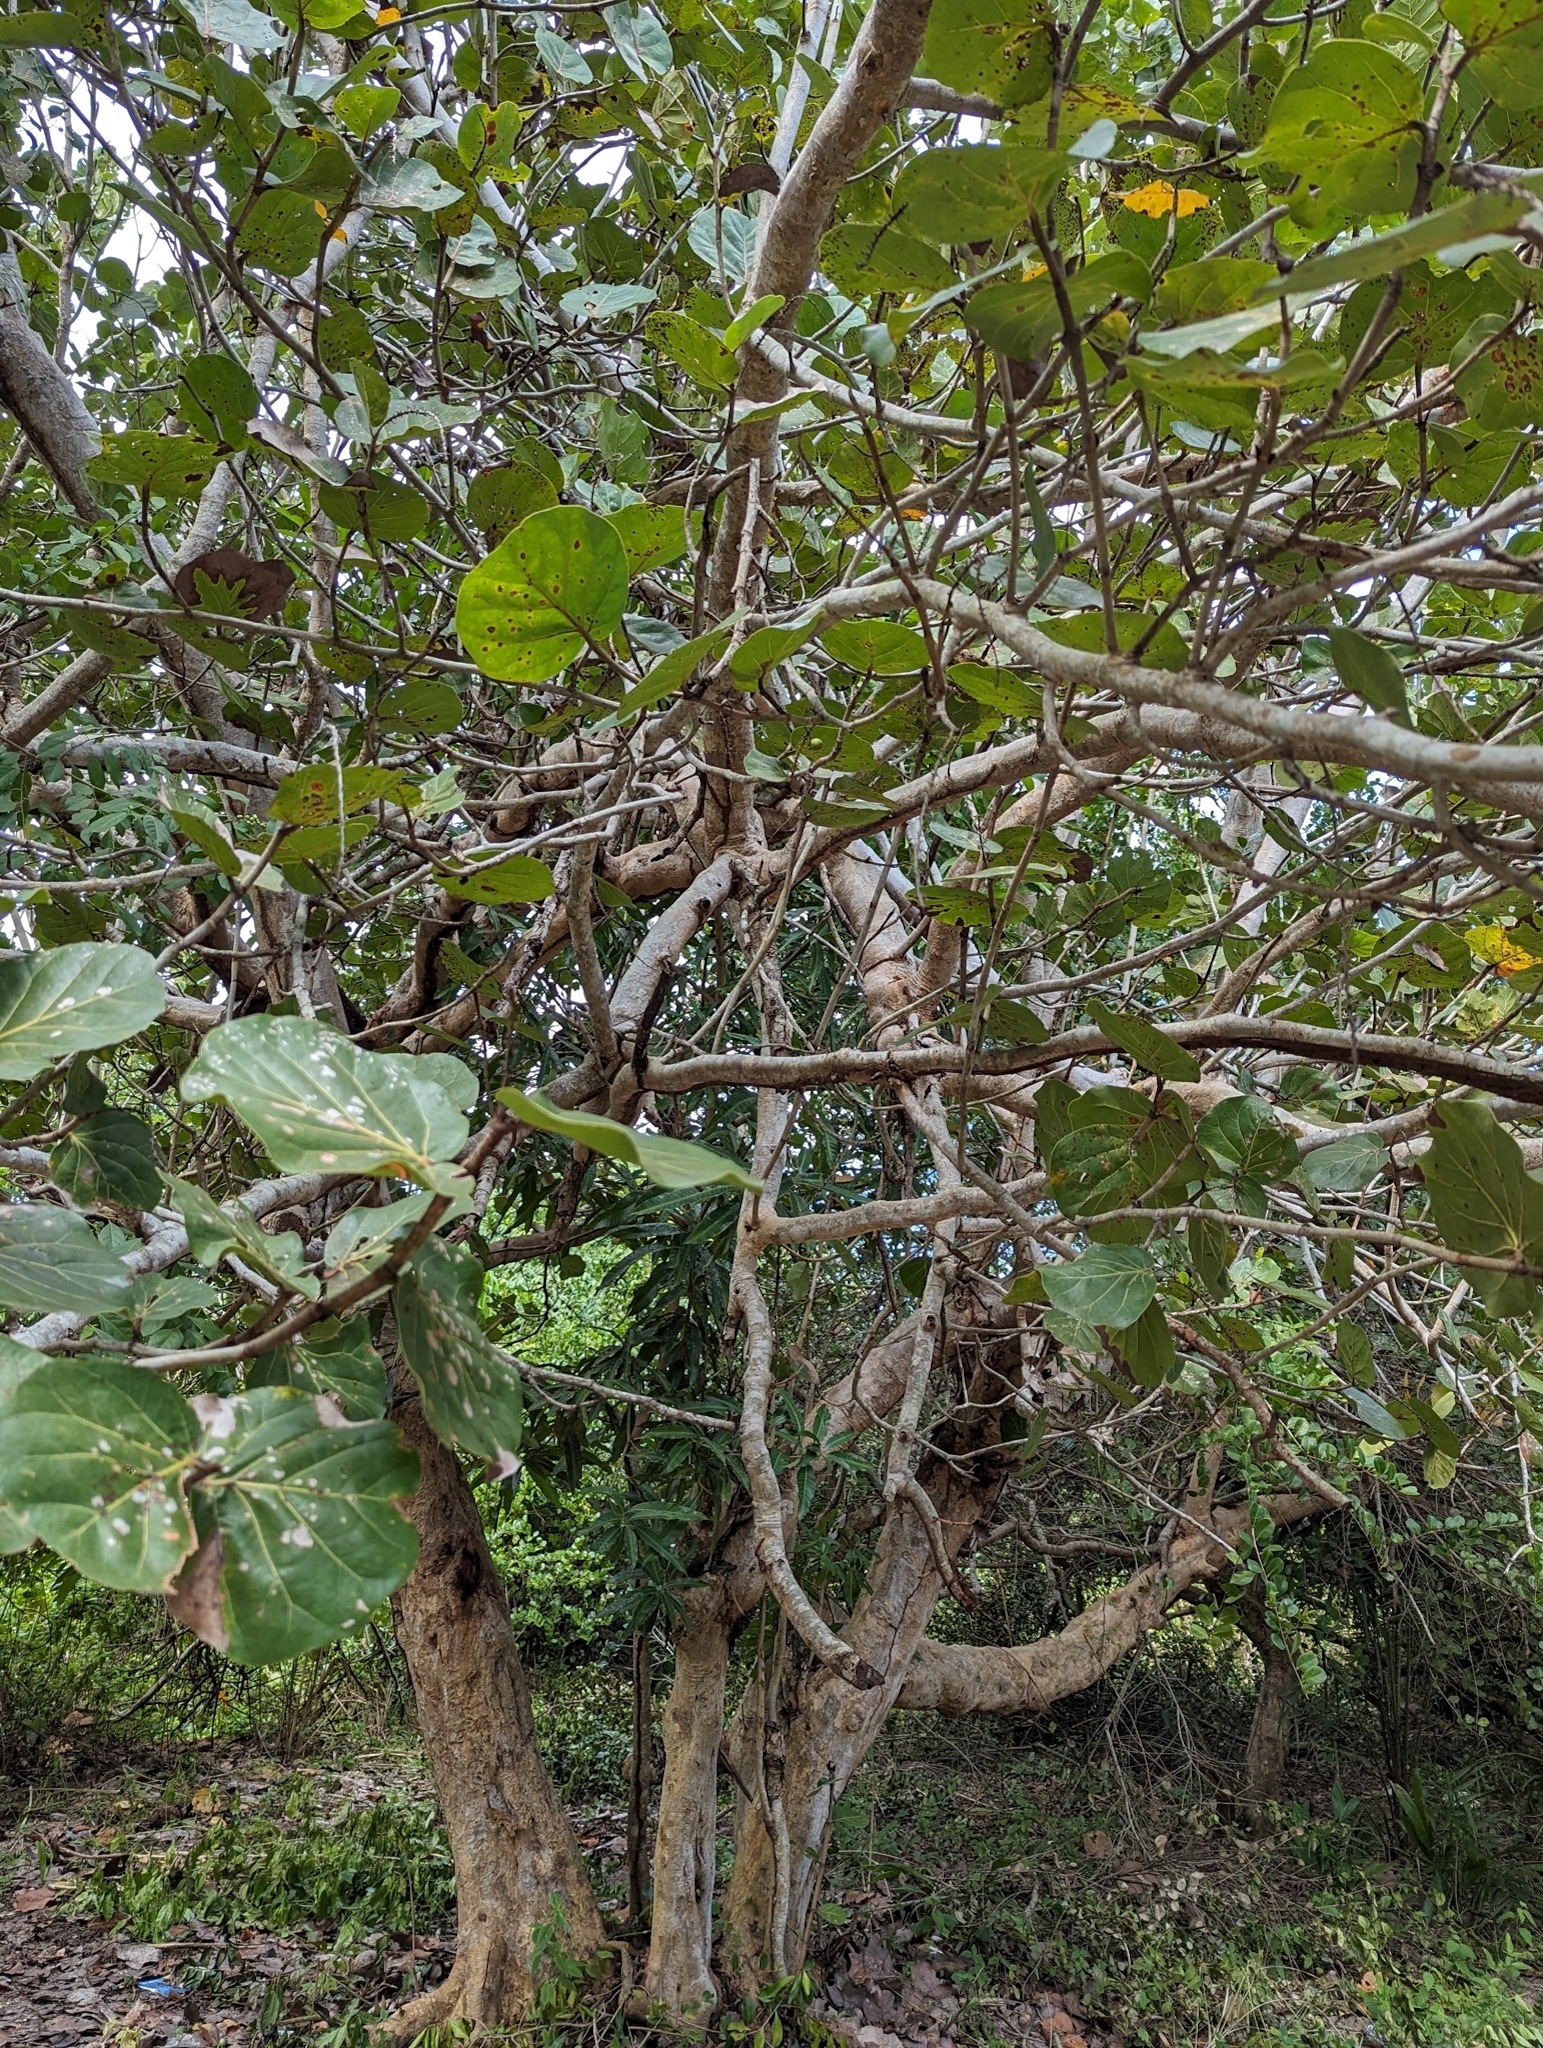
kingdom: Plantae
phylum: Tracheophyta
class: Magnoliopsida
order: Caryophyllales
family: Polygonaceae
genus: Coccoloba
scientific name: Coccoloba uvifera
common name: Seagrape
